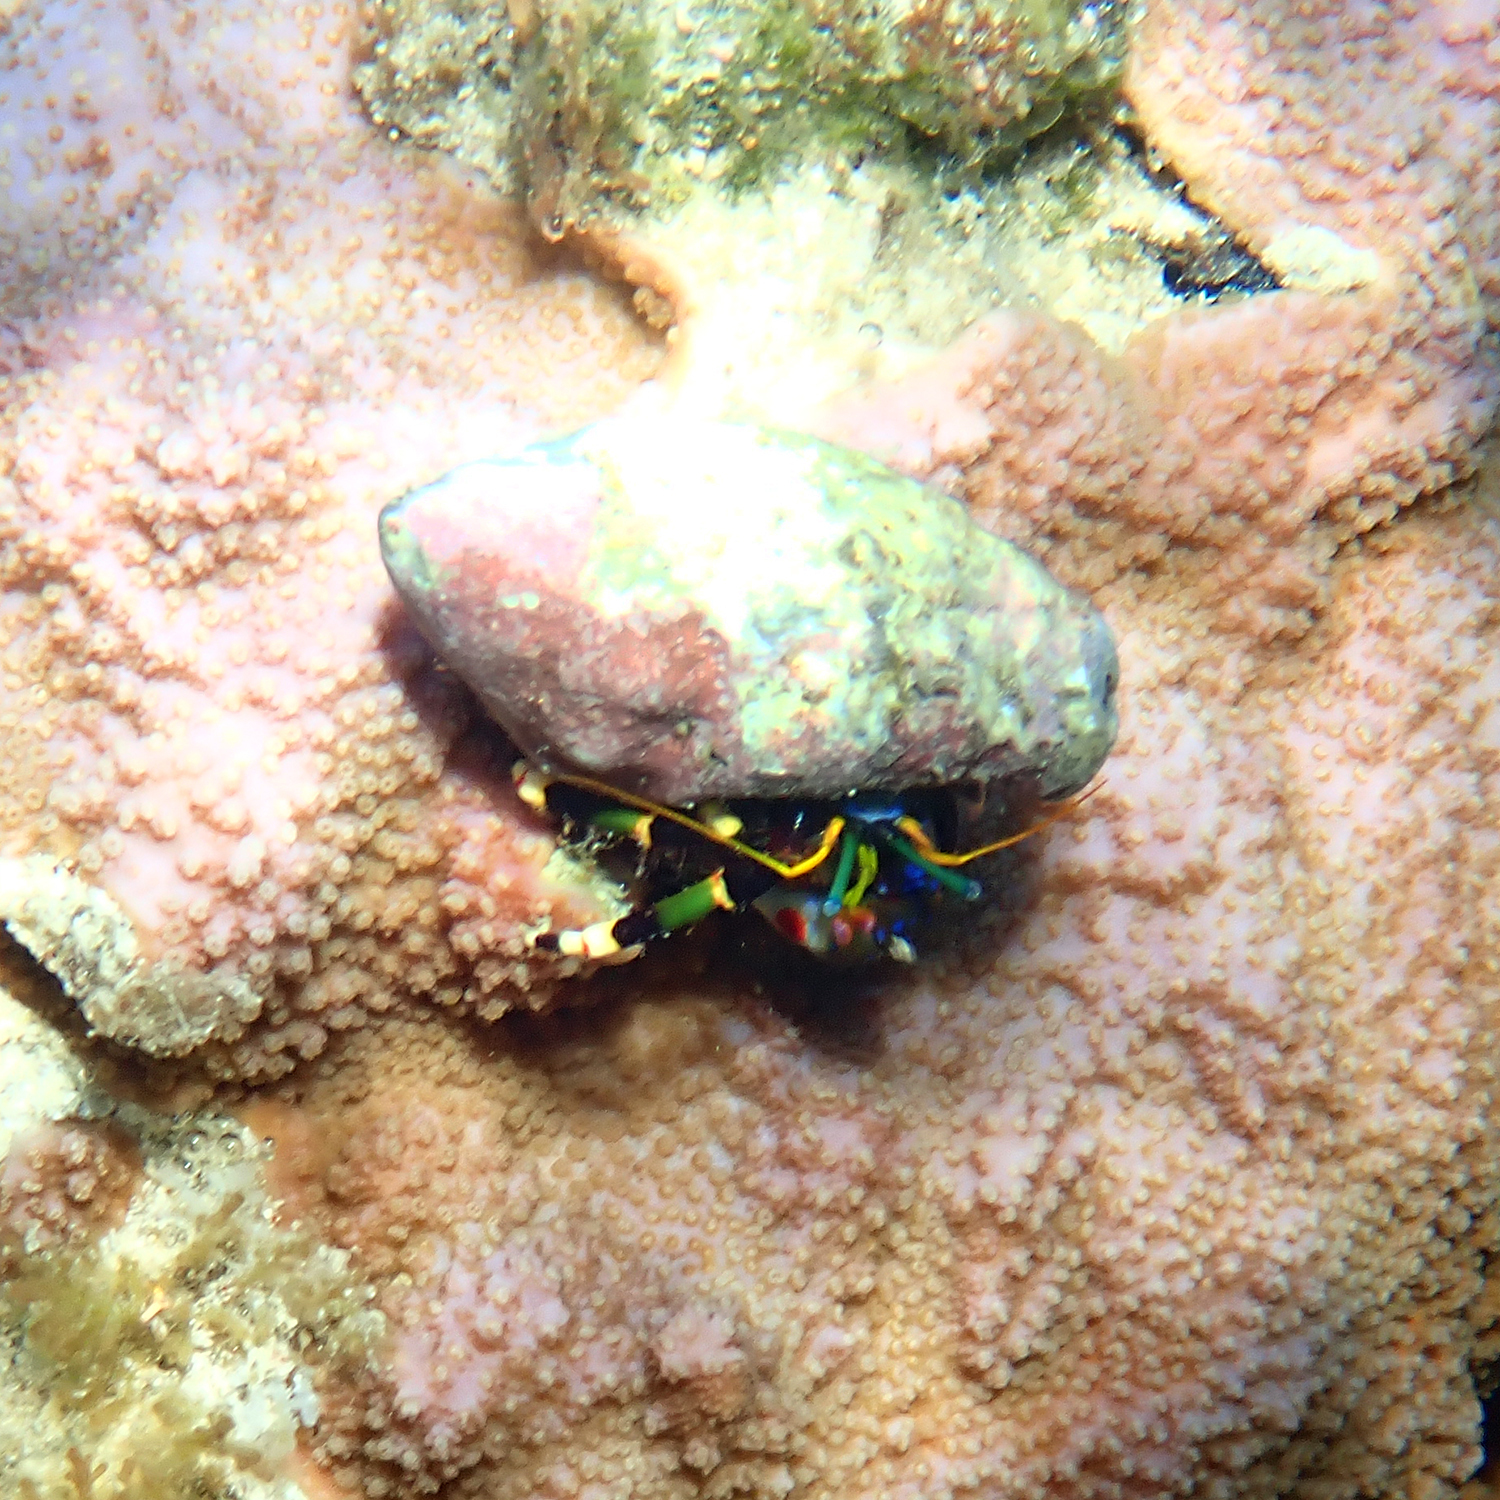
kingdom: Animalia
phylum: Arthropoda
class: Malacostraca
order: Decapoda
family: Diogenidae
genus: Calcinus
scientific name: Calcinus imperialis
